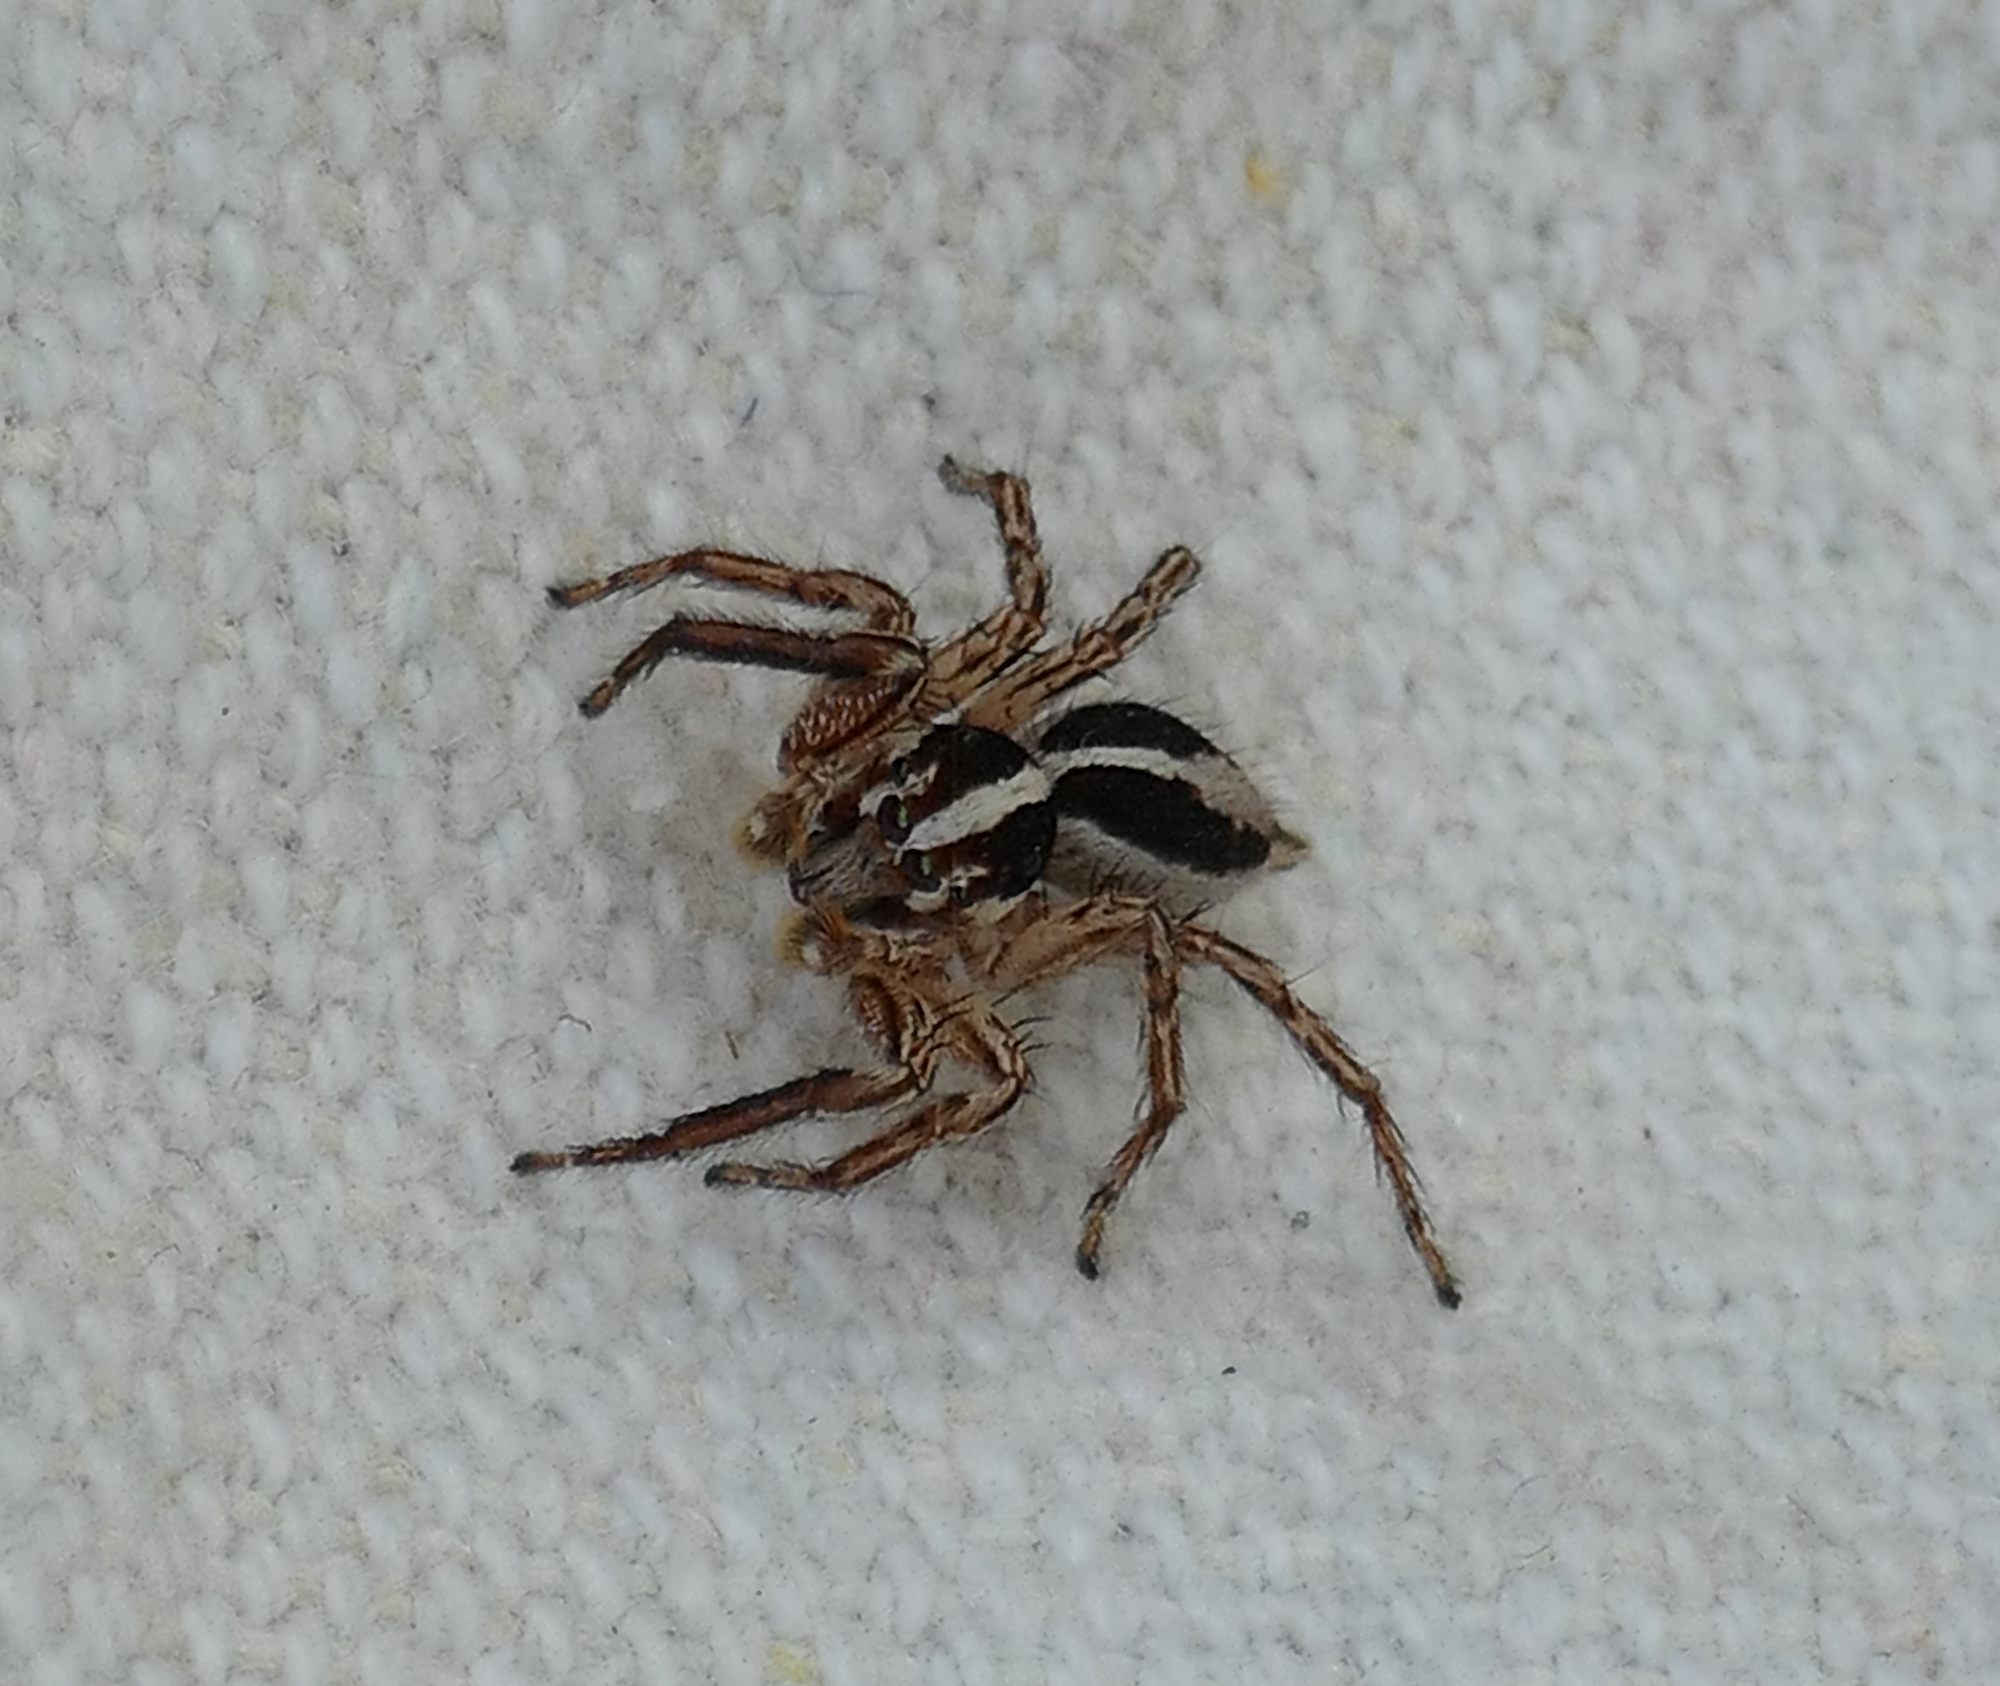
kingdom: Animalia
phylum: Arthropoda
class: Arachnida
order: Araneae
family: Salticidae
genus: Plexippus
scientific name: Plexippus paykulli
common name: Pantropical jumper
